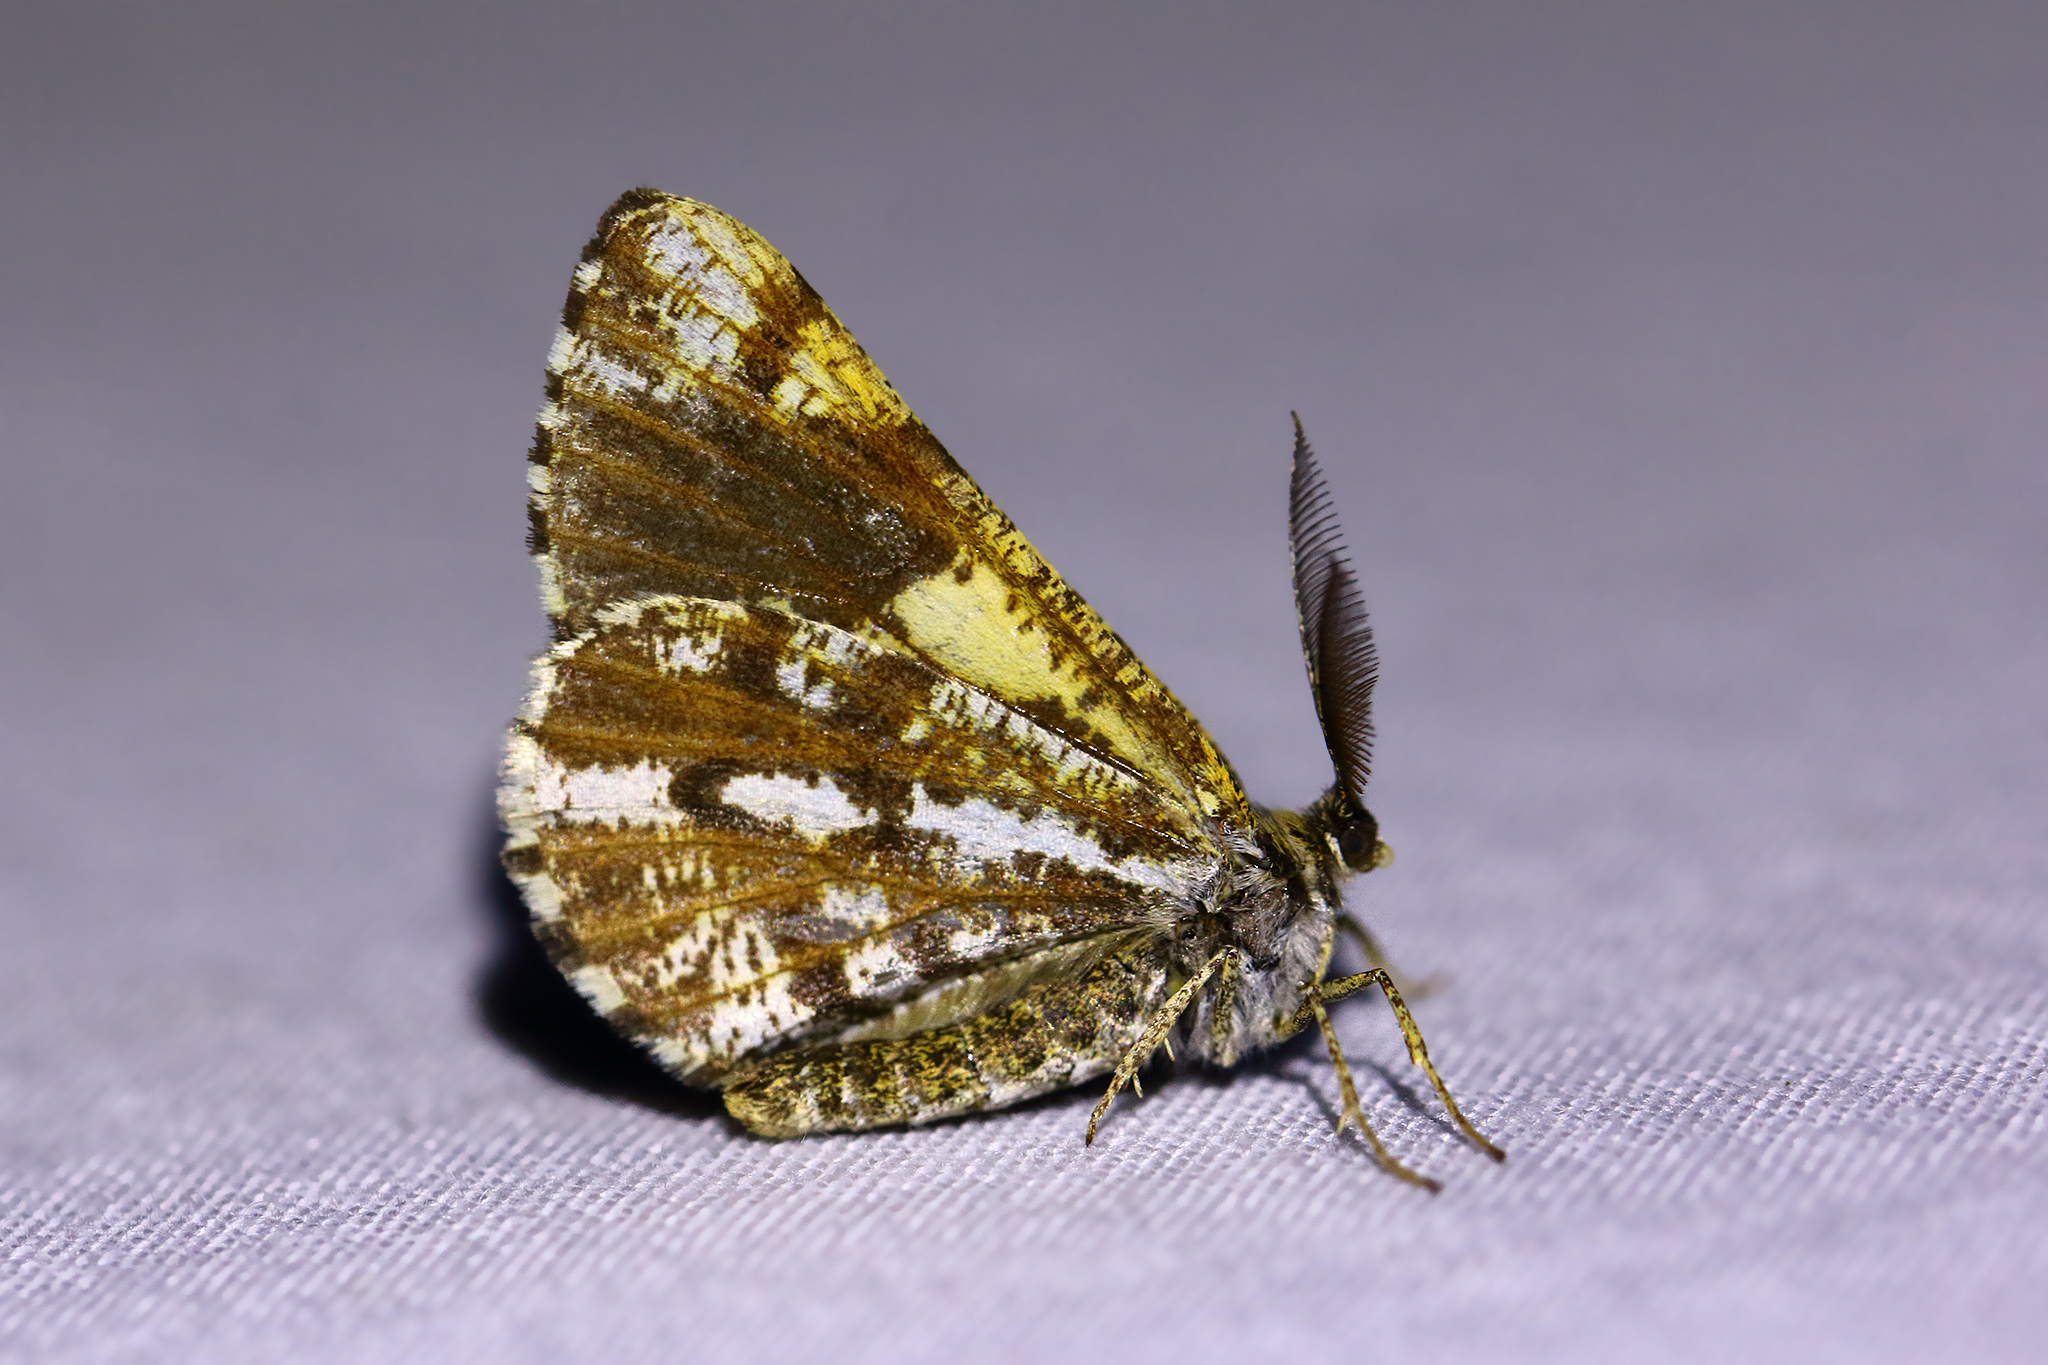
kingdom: Animalia
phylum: Arthropoda
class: Insecta
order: Lepidoptera
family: Geometridae
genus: Bupalus
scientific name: Bupalus piniaria
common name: Bordered white
